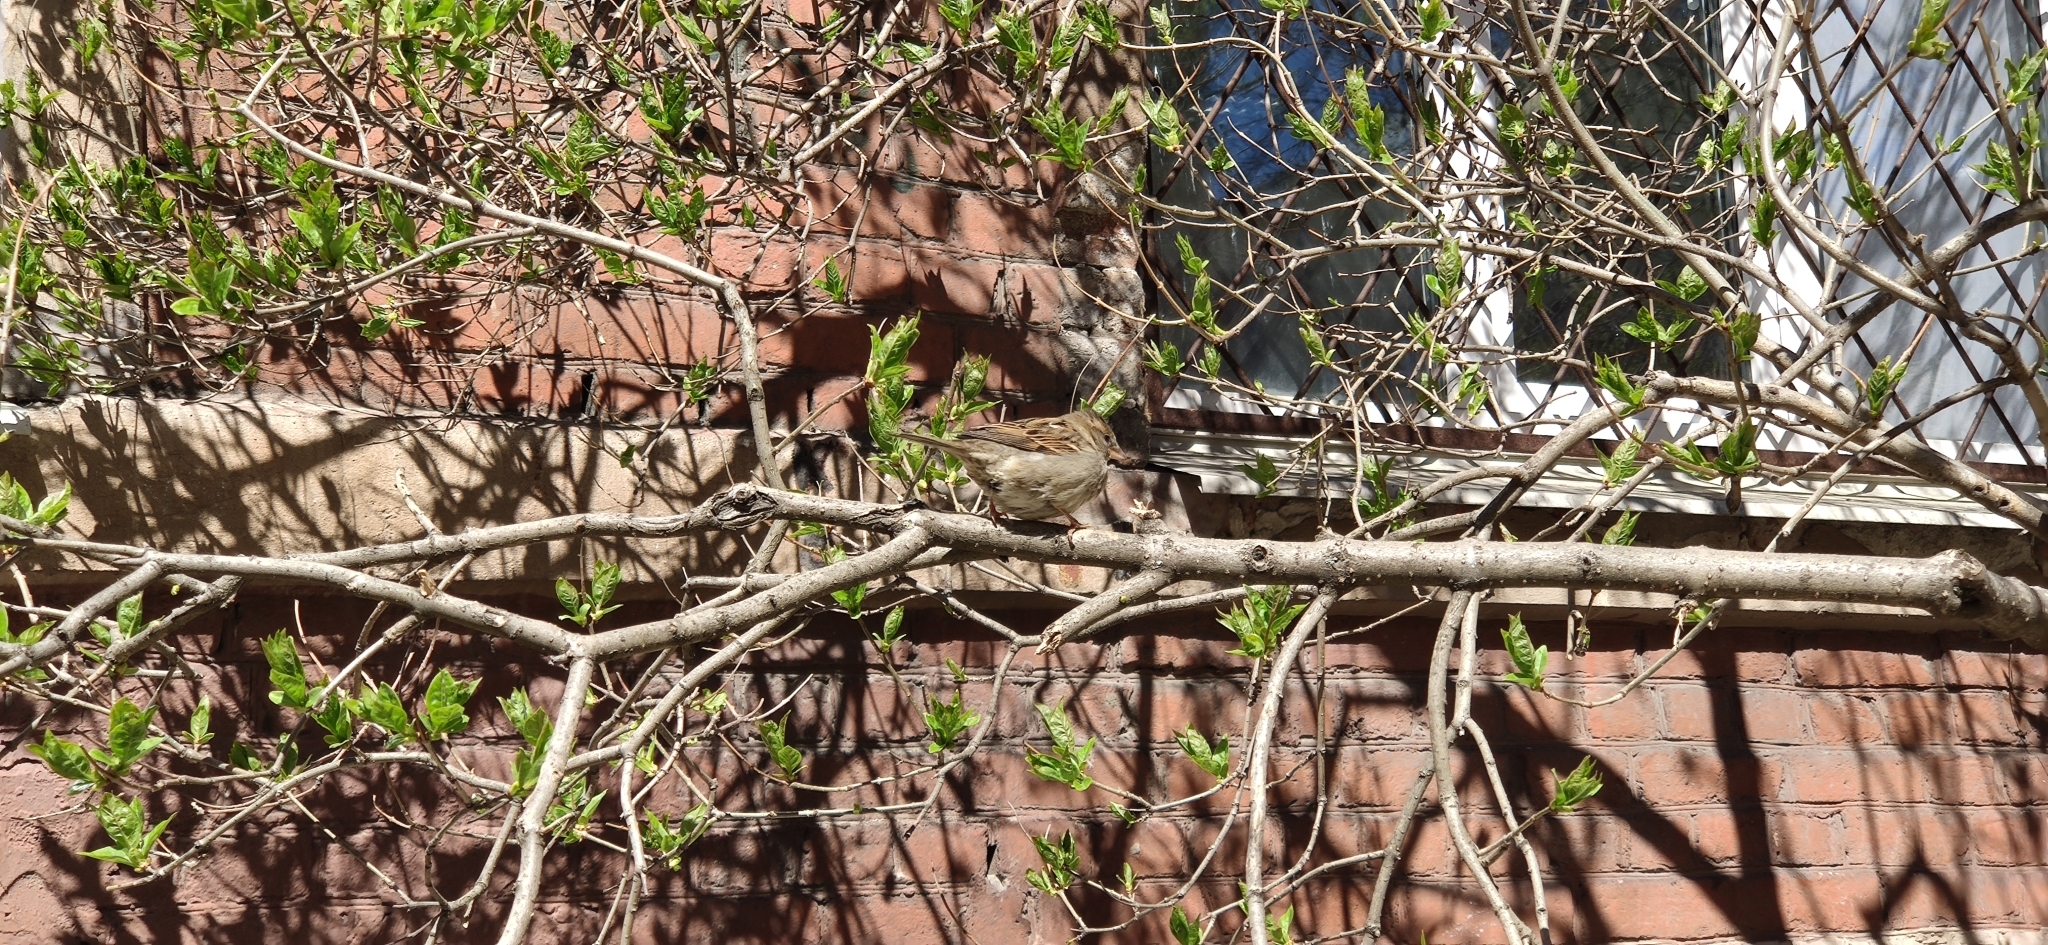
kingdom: Animalia
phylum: Chordata
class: Aves
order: Passeriformes
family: Passeridae
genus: Passer
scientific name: Passer domesticus
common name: House sparrow
